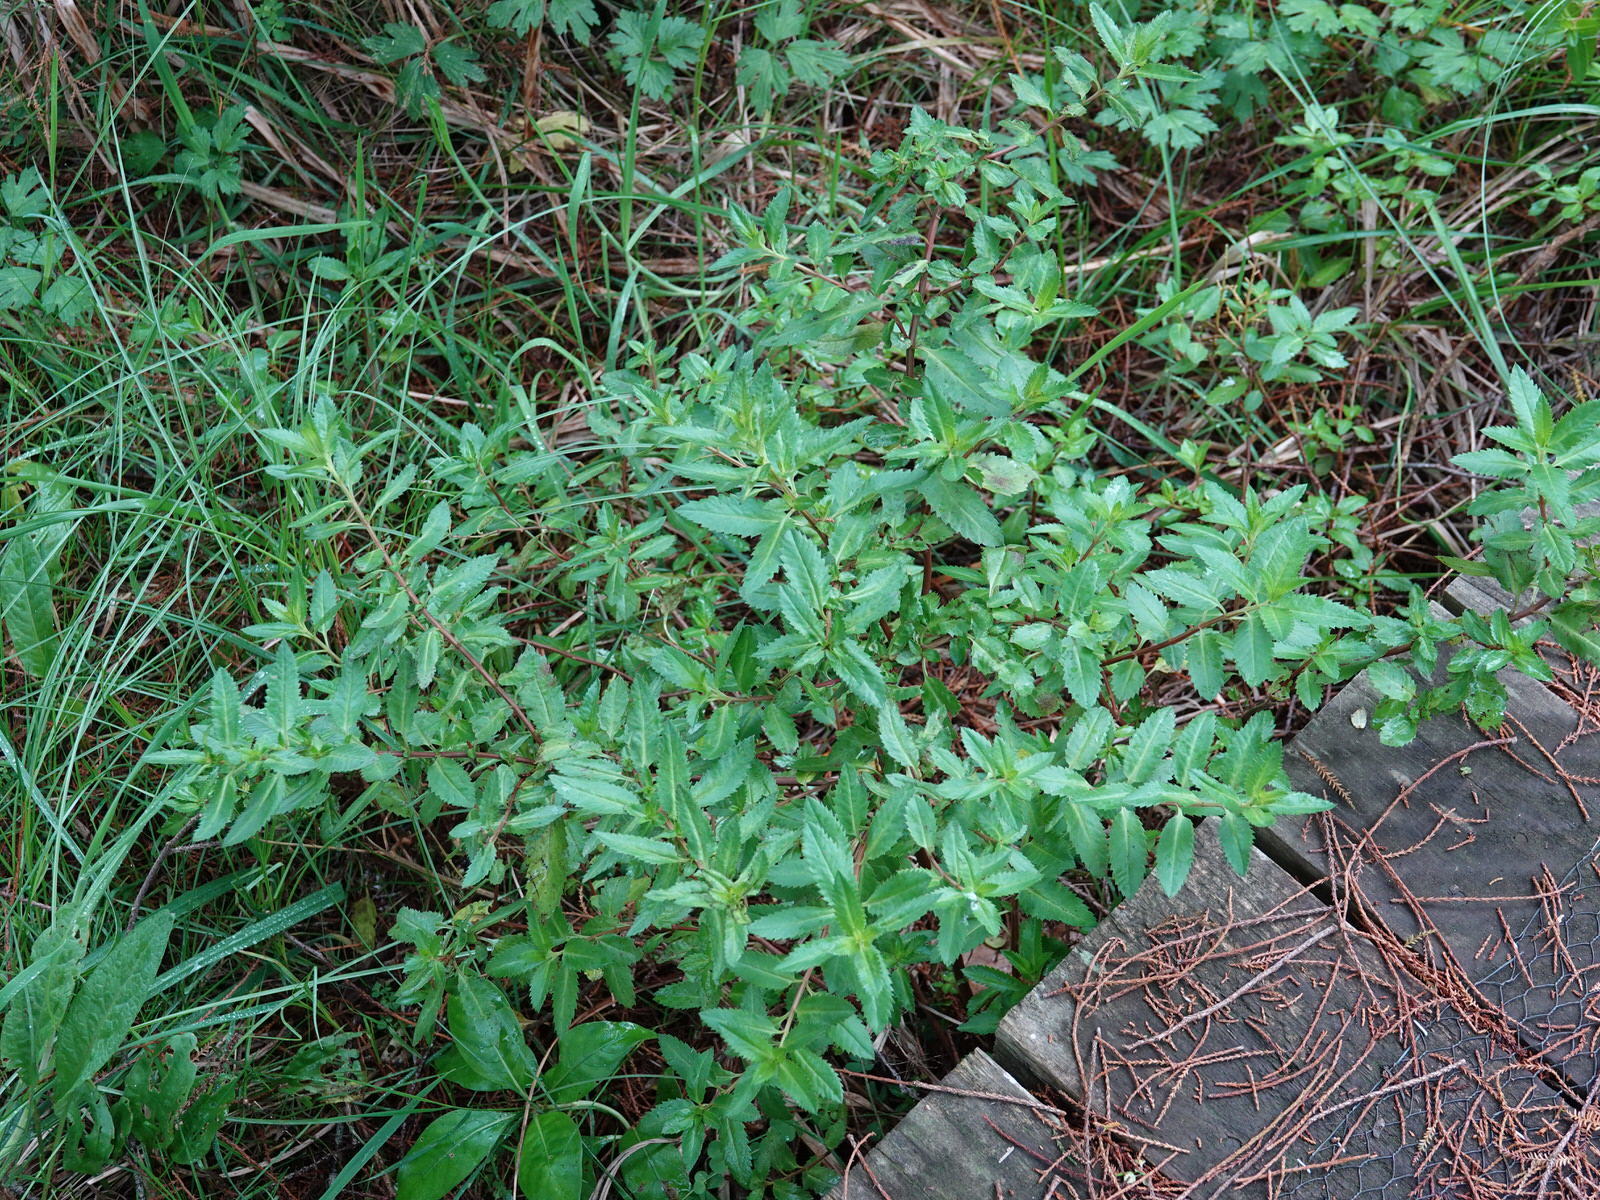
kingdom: Plantae
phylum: Tracheophyta
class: Magnoliopsida
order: Saxifragales
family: Haloragaceae
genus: Haloragis
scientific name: Haloragis erecta
